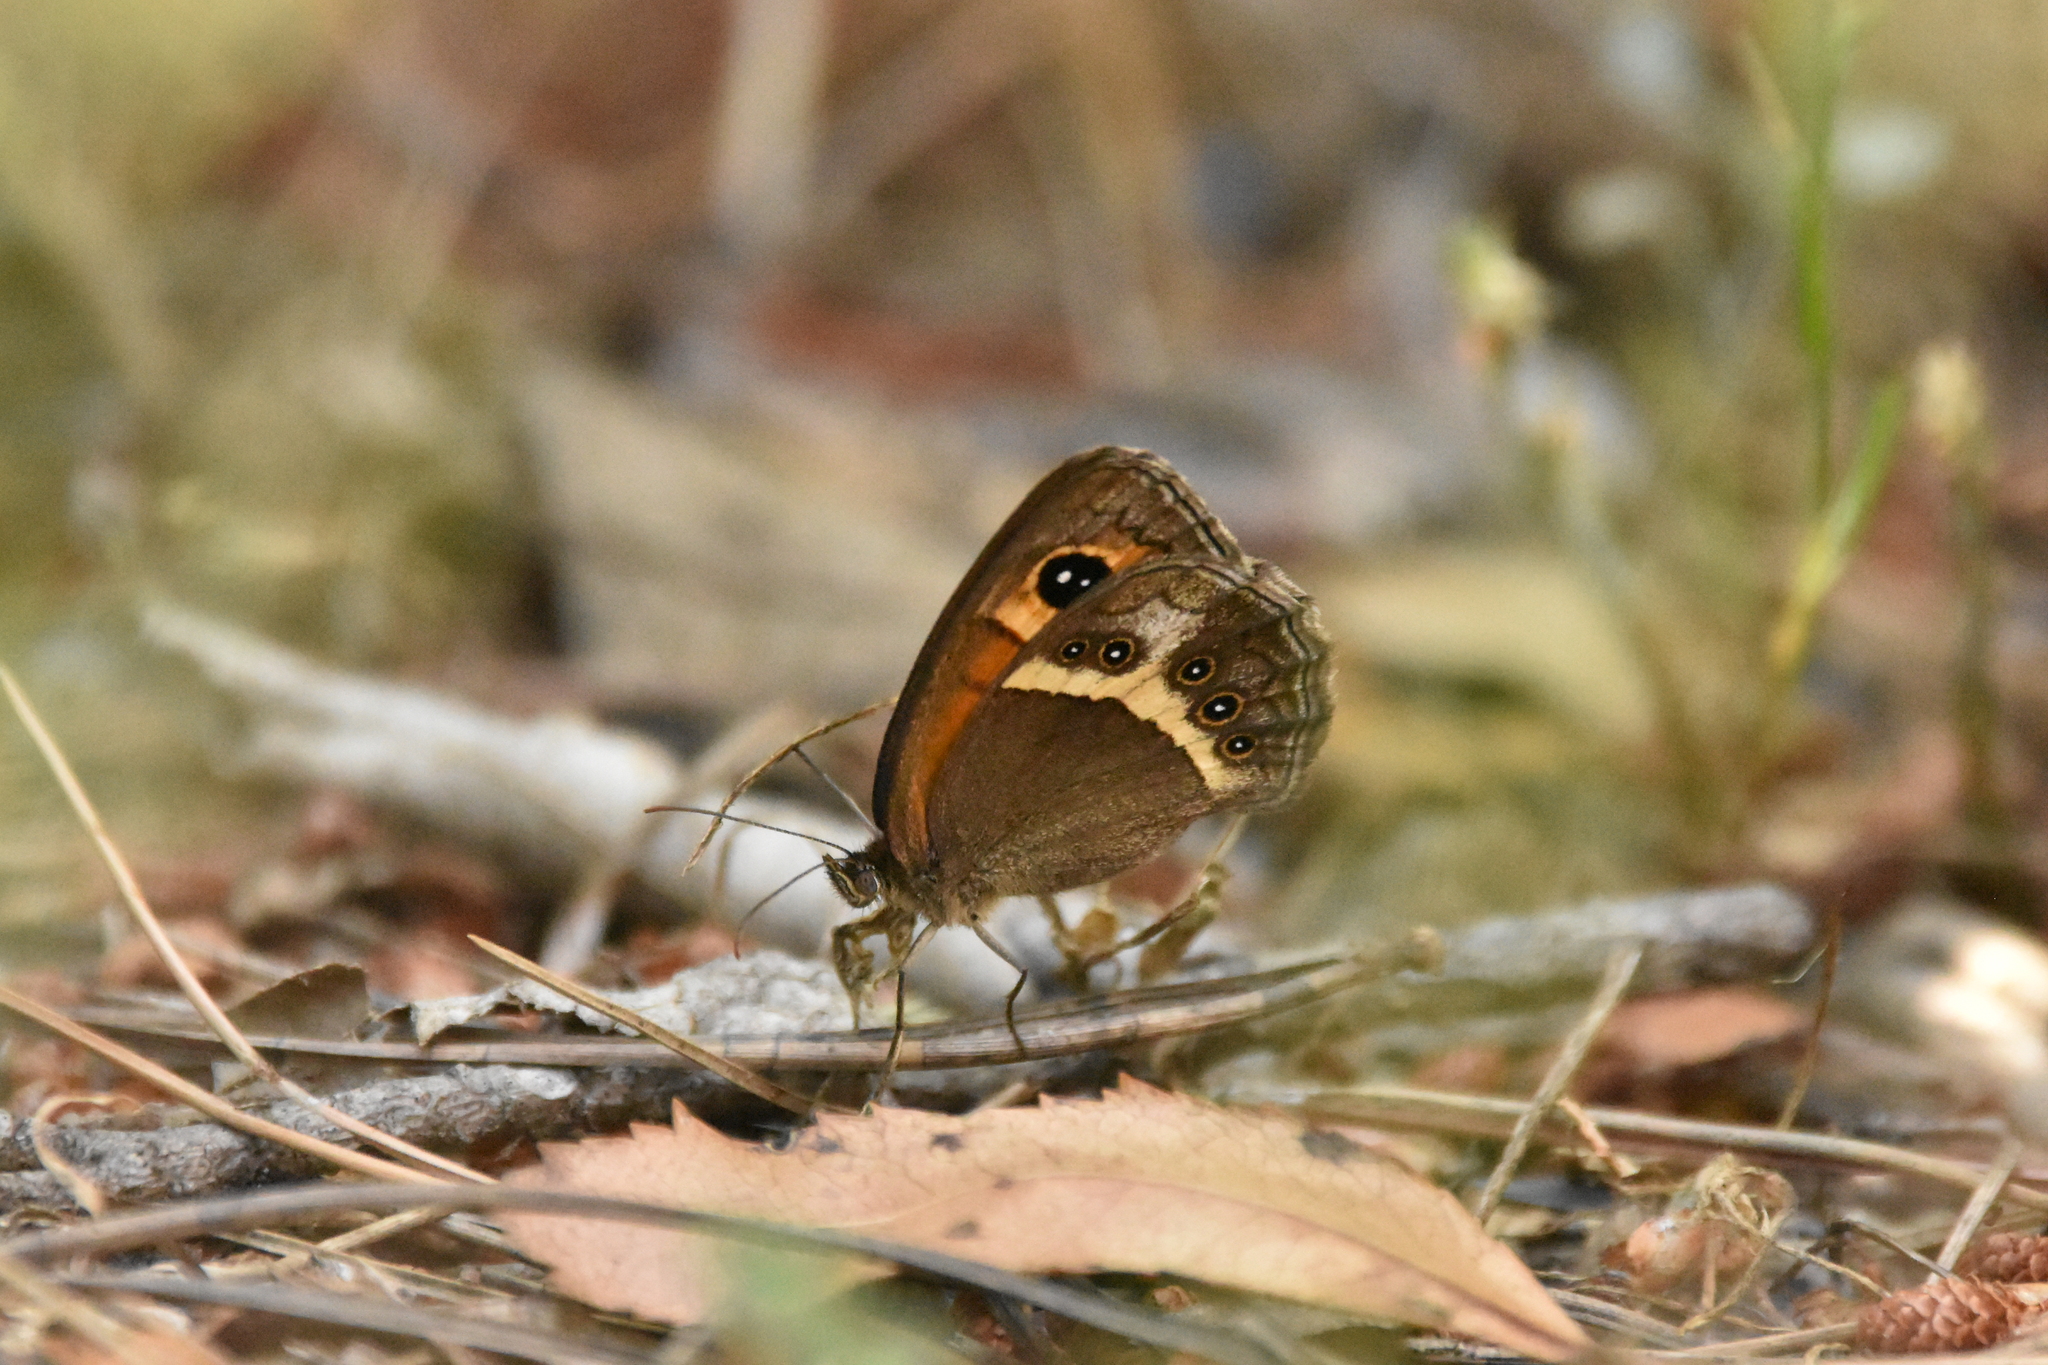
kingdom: Animalia
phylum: Arthropoda
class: Insecta
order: Lepidoptera
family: Nymphalidae
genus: Pyronia
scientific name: Pyronia bathseba
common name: Spanish gatekeeper
